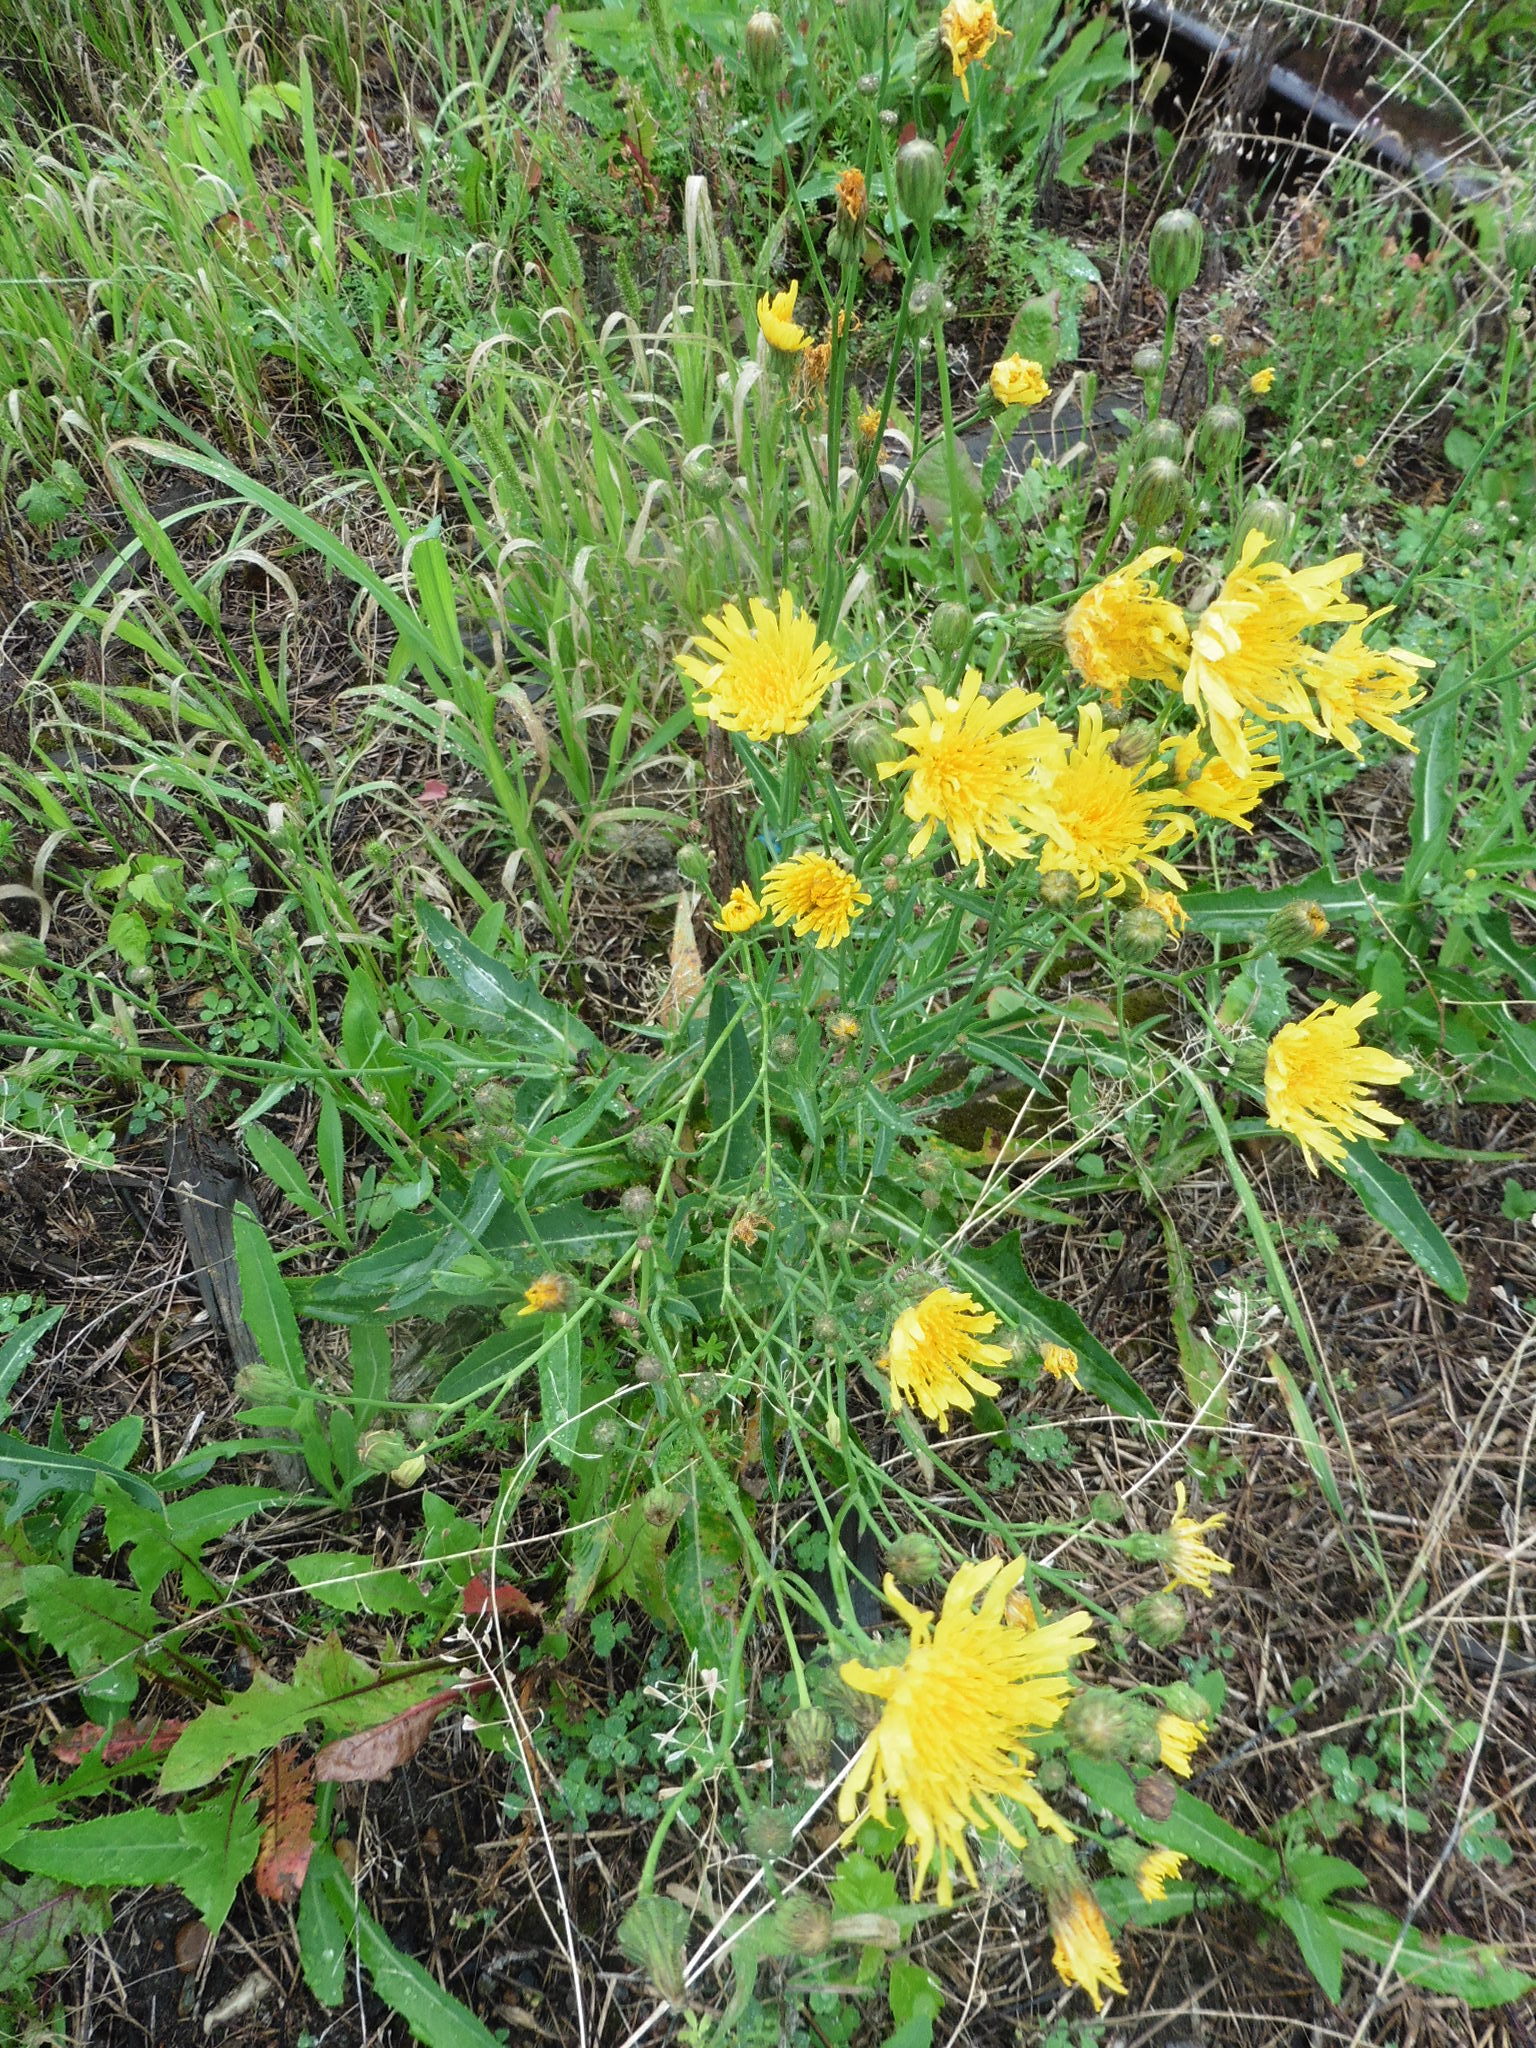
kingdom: Plantae
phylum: Tracheophyta
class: Magnoliopsida
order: Asterales
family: Asteraceae
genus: Sonchus
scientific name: Sonchus arvensis
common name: Perennial sow-thistle
